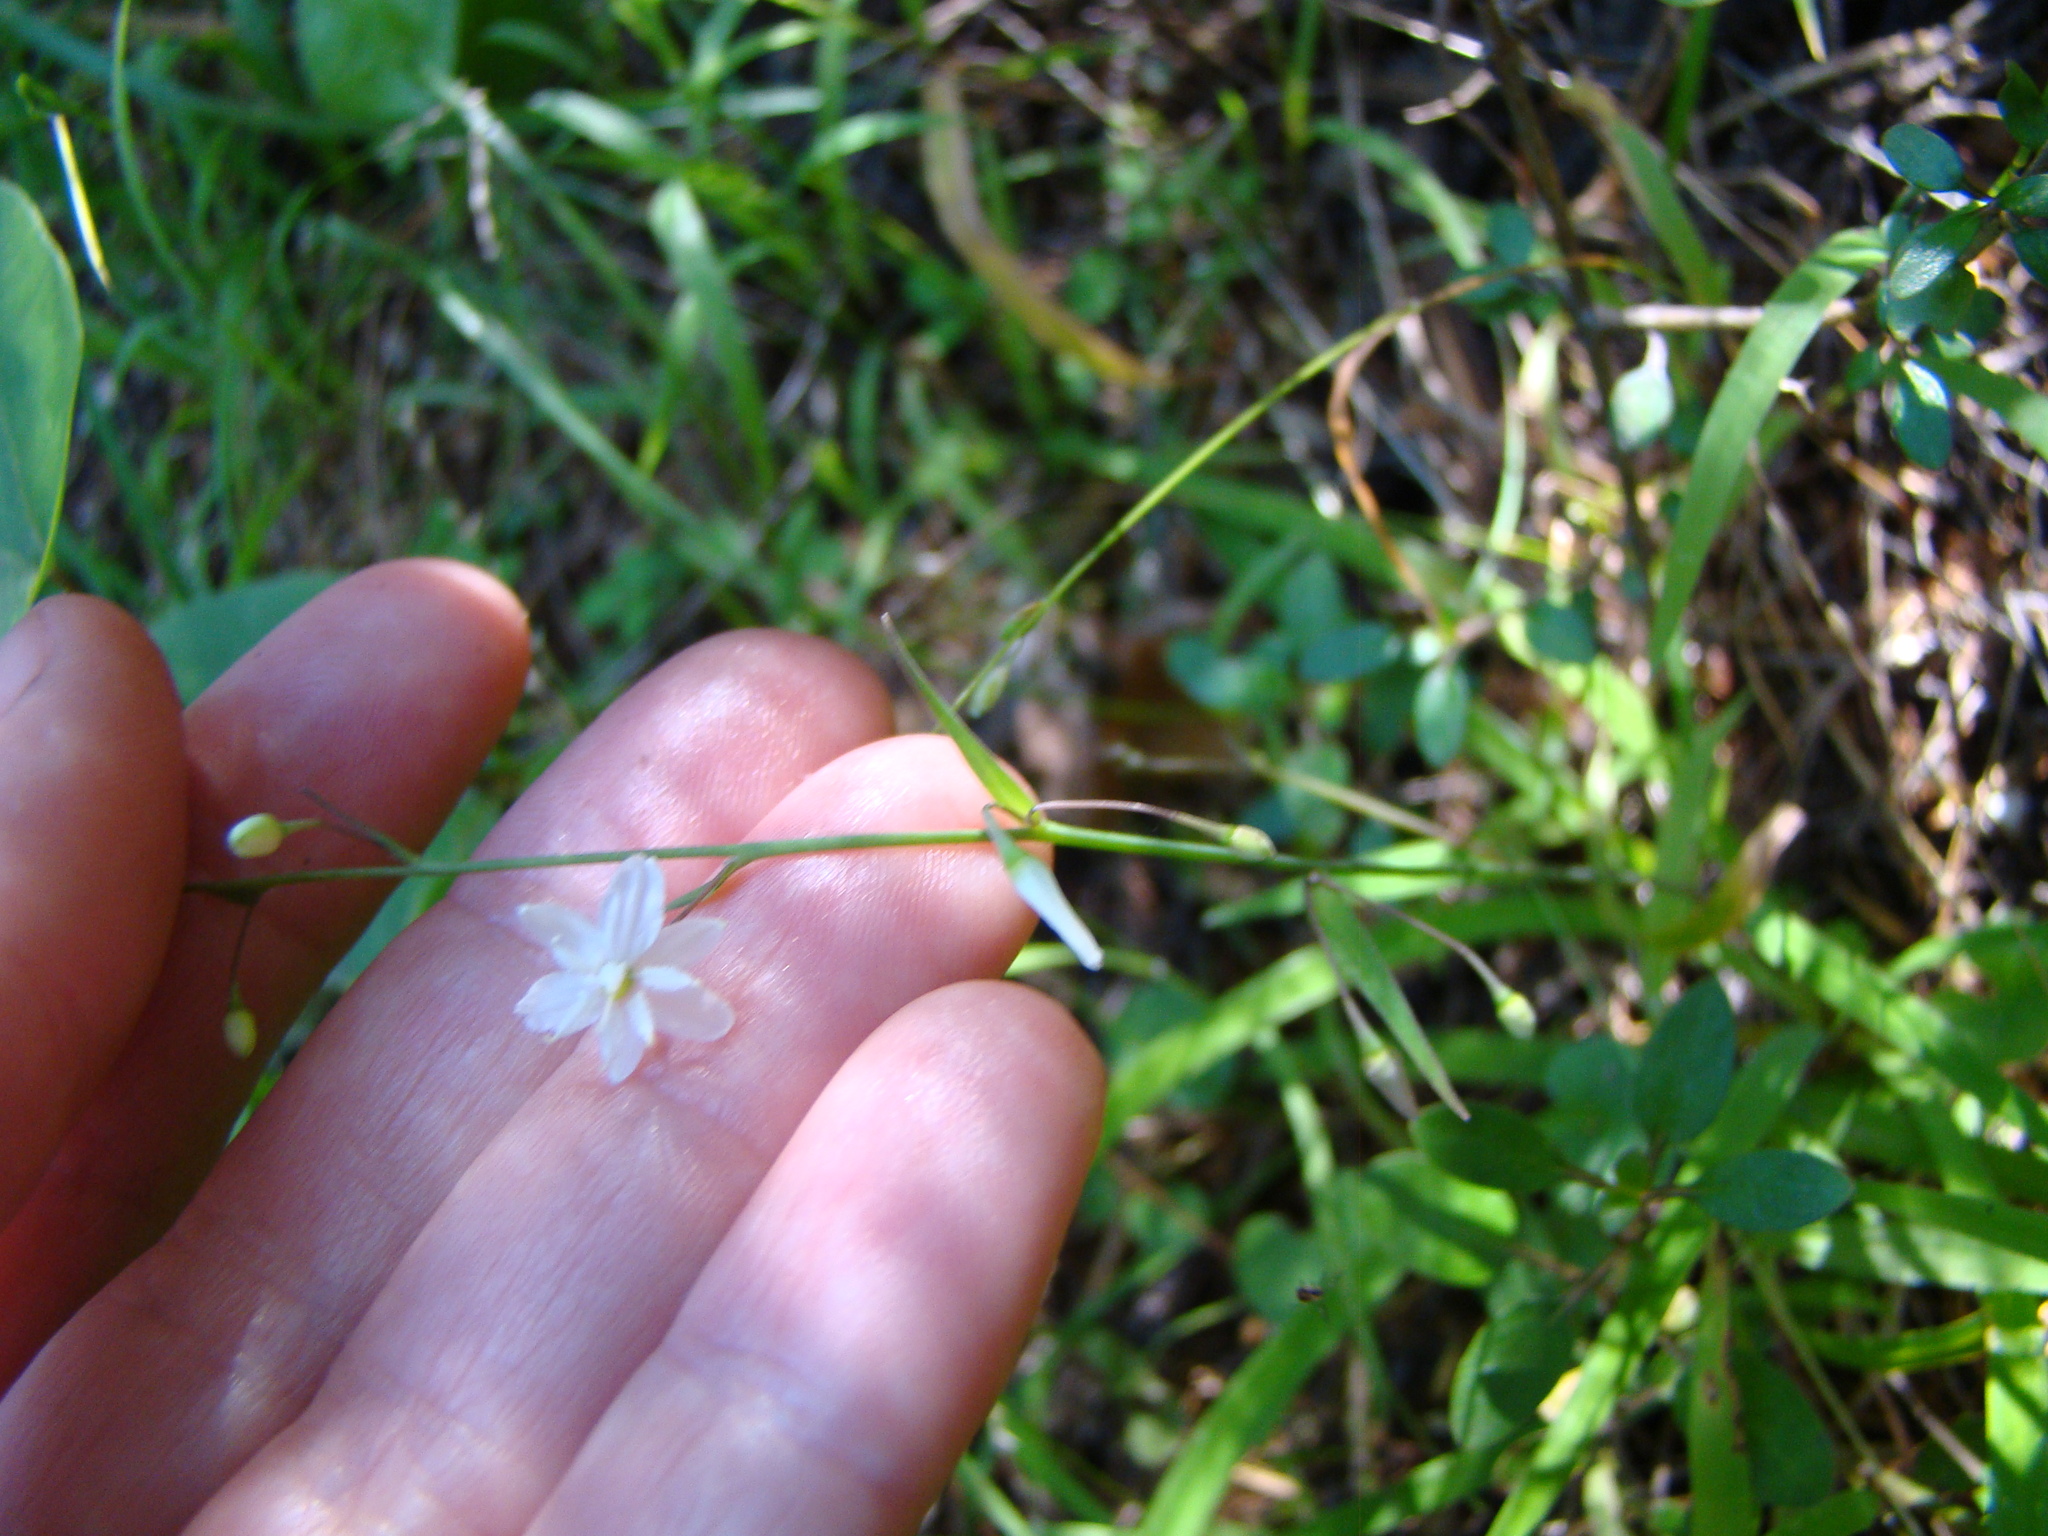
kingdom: Plantae
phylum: Tracheophyta
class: Liliopsida
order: Asparagales
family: Asparagaceae
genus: Arthropodium
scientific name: Arthropodium candidum
